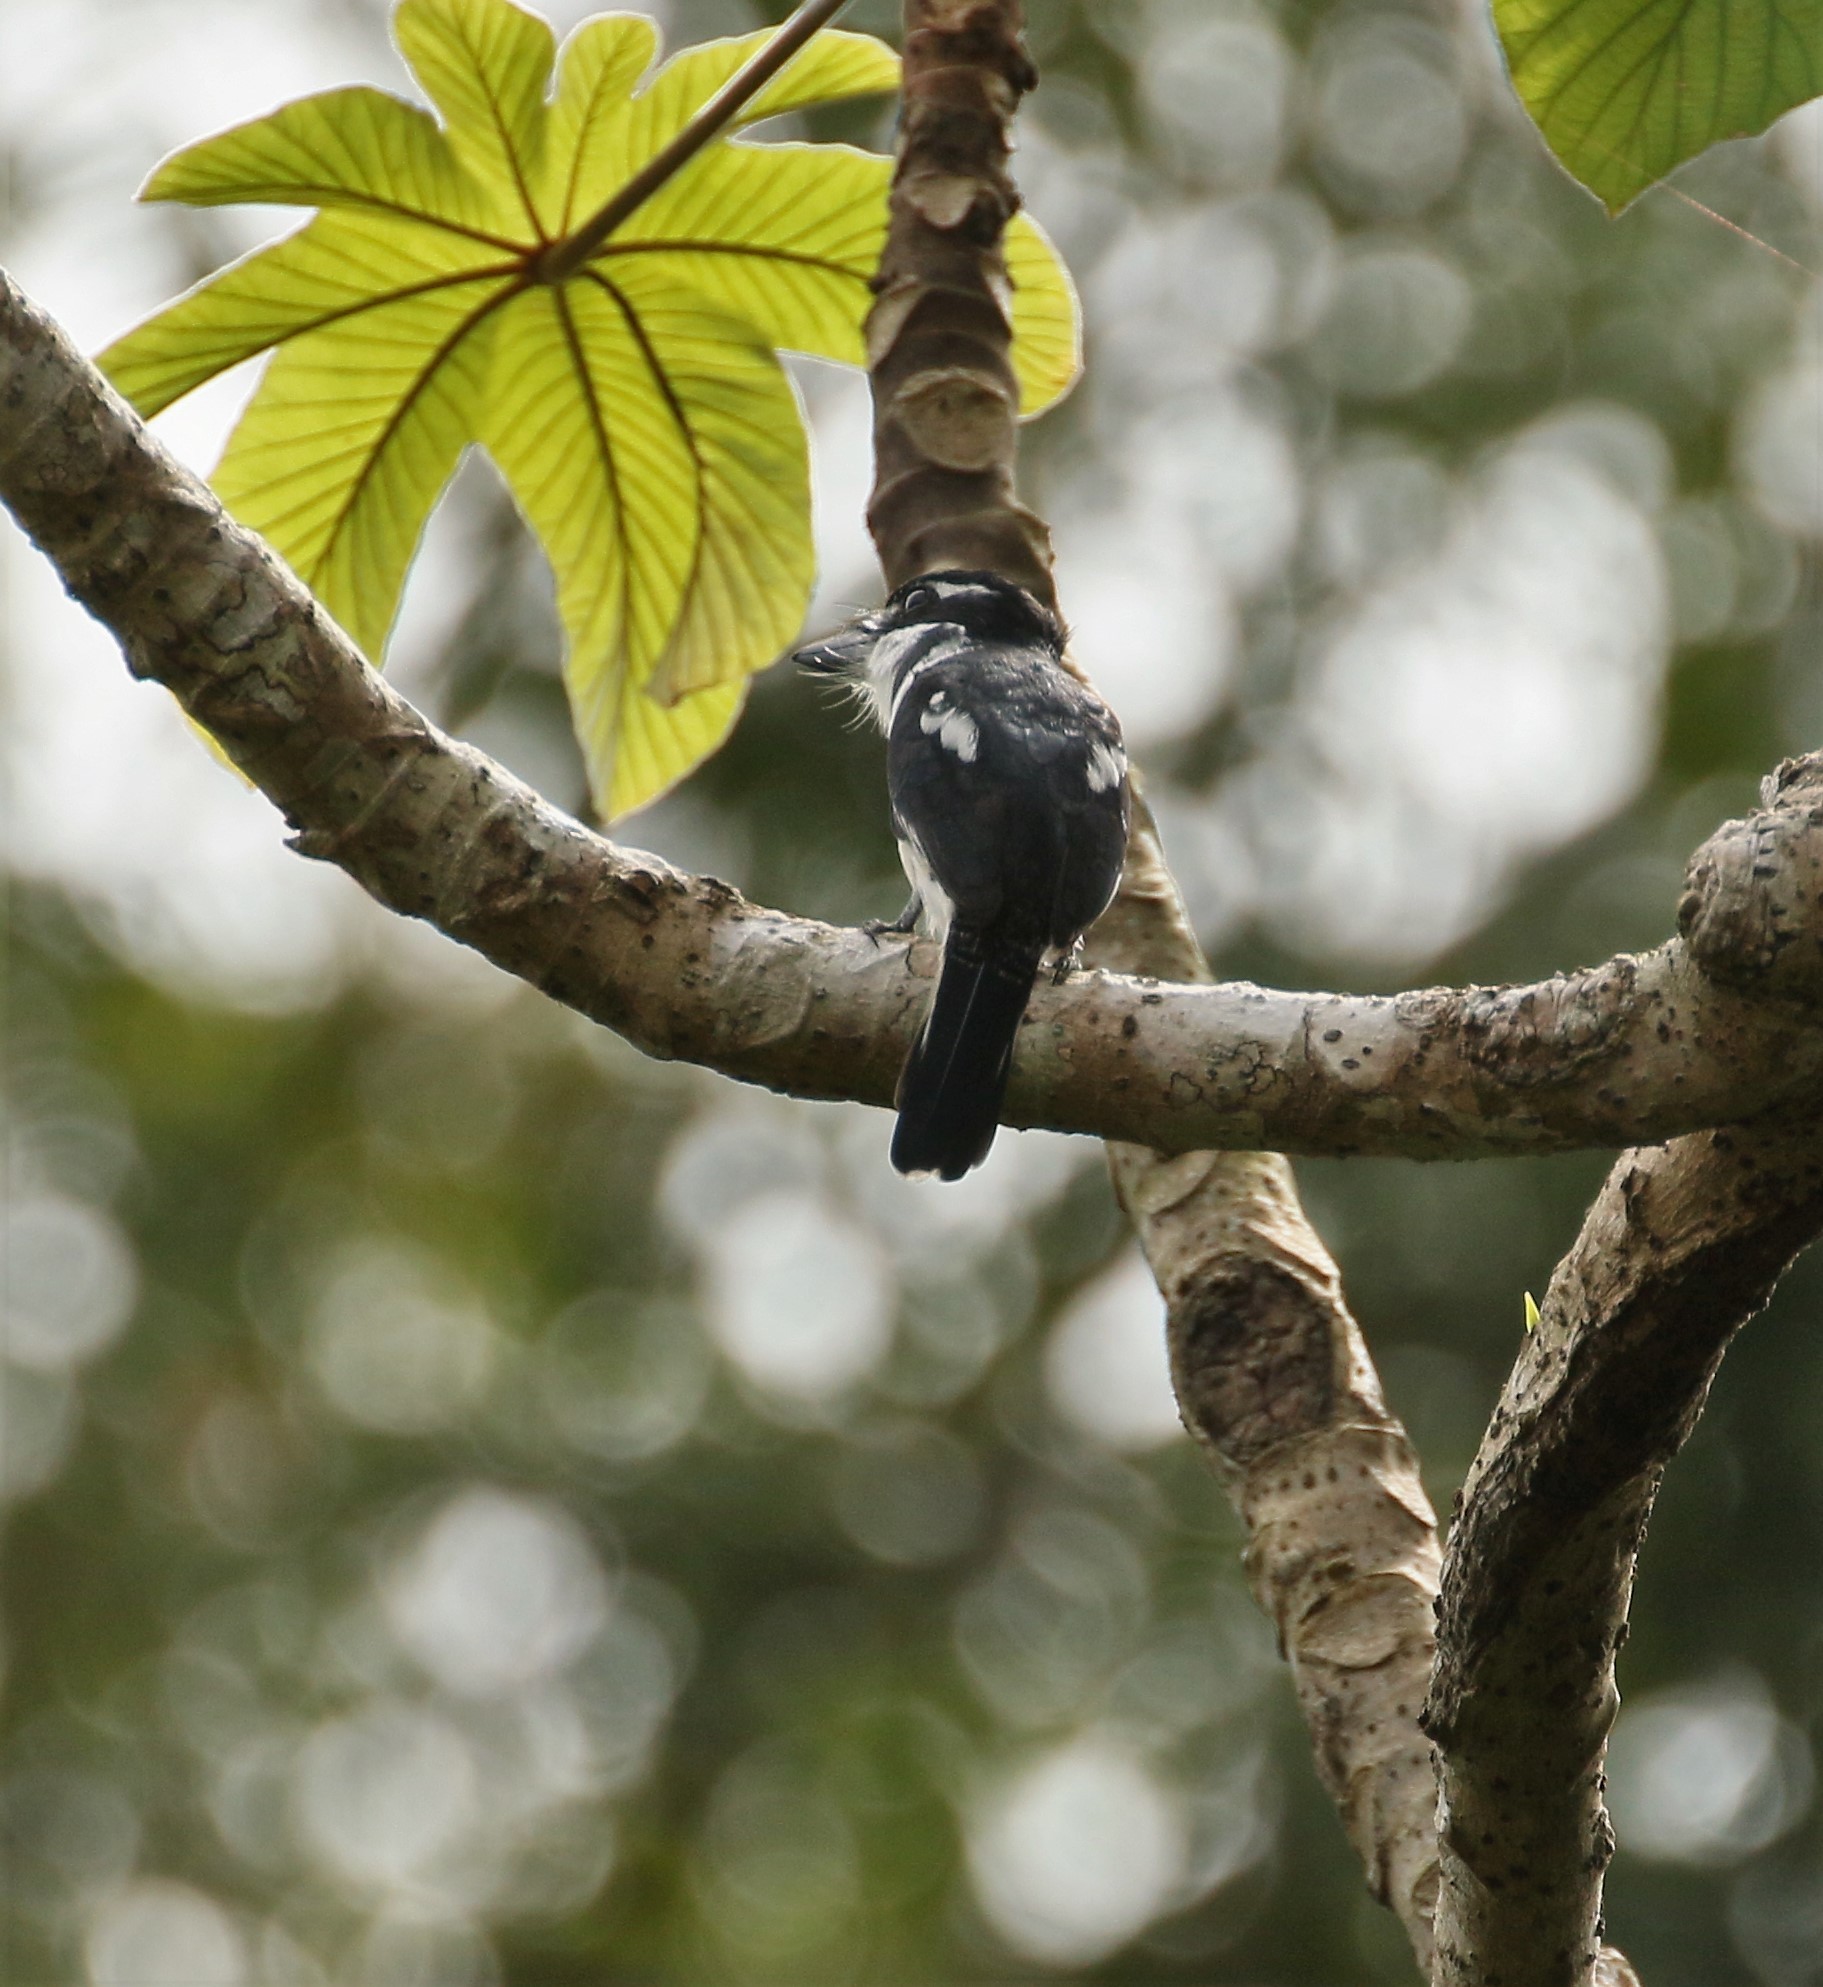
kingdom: Animalia
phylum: Chordata
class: Aves
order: Piciformes
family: Bucconidae
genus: Notharchus
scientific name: Notharchus hyperrhynchus
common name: White-necked puffbird
